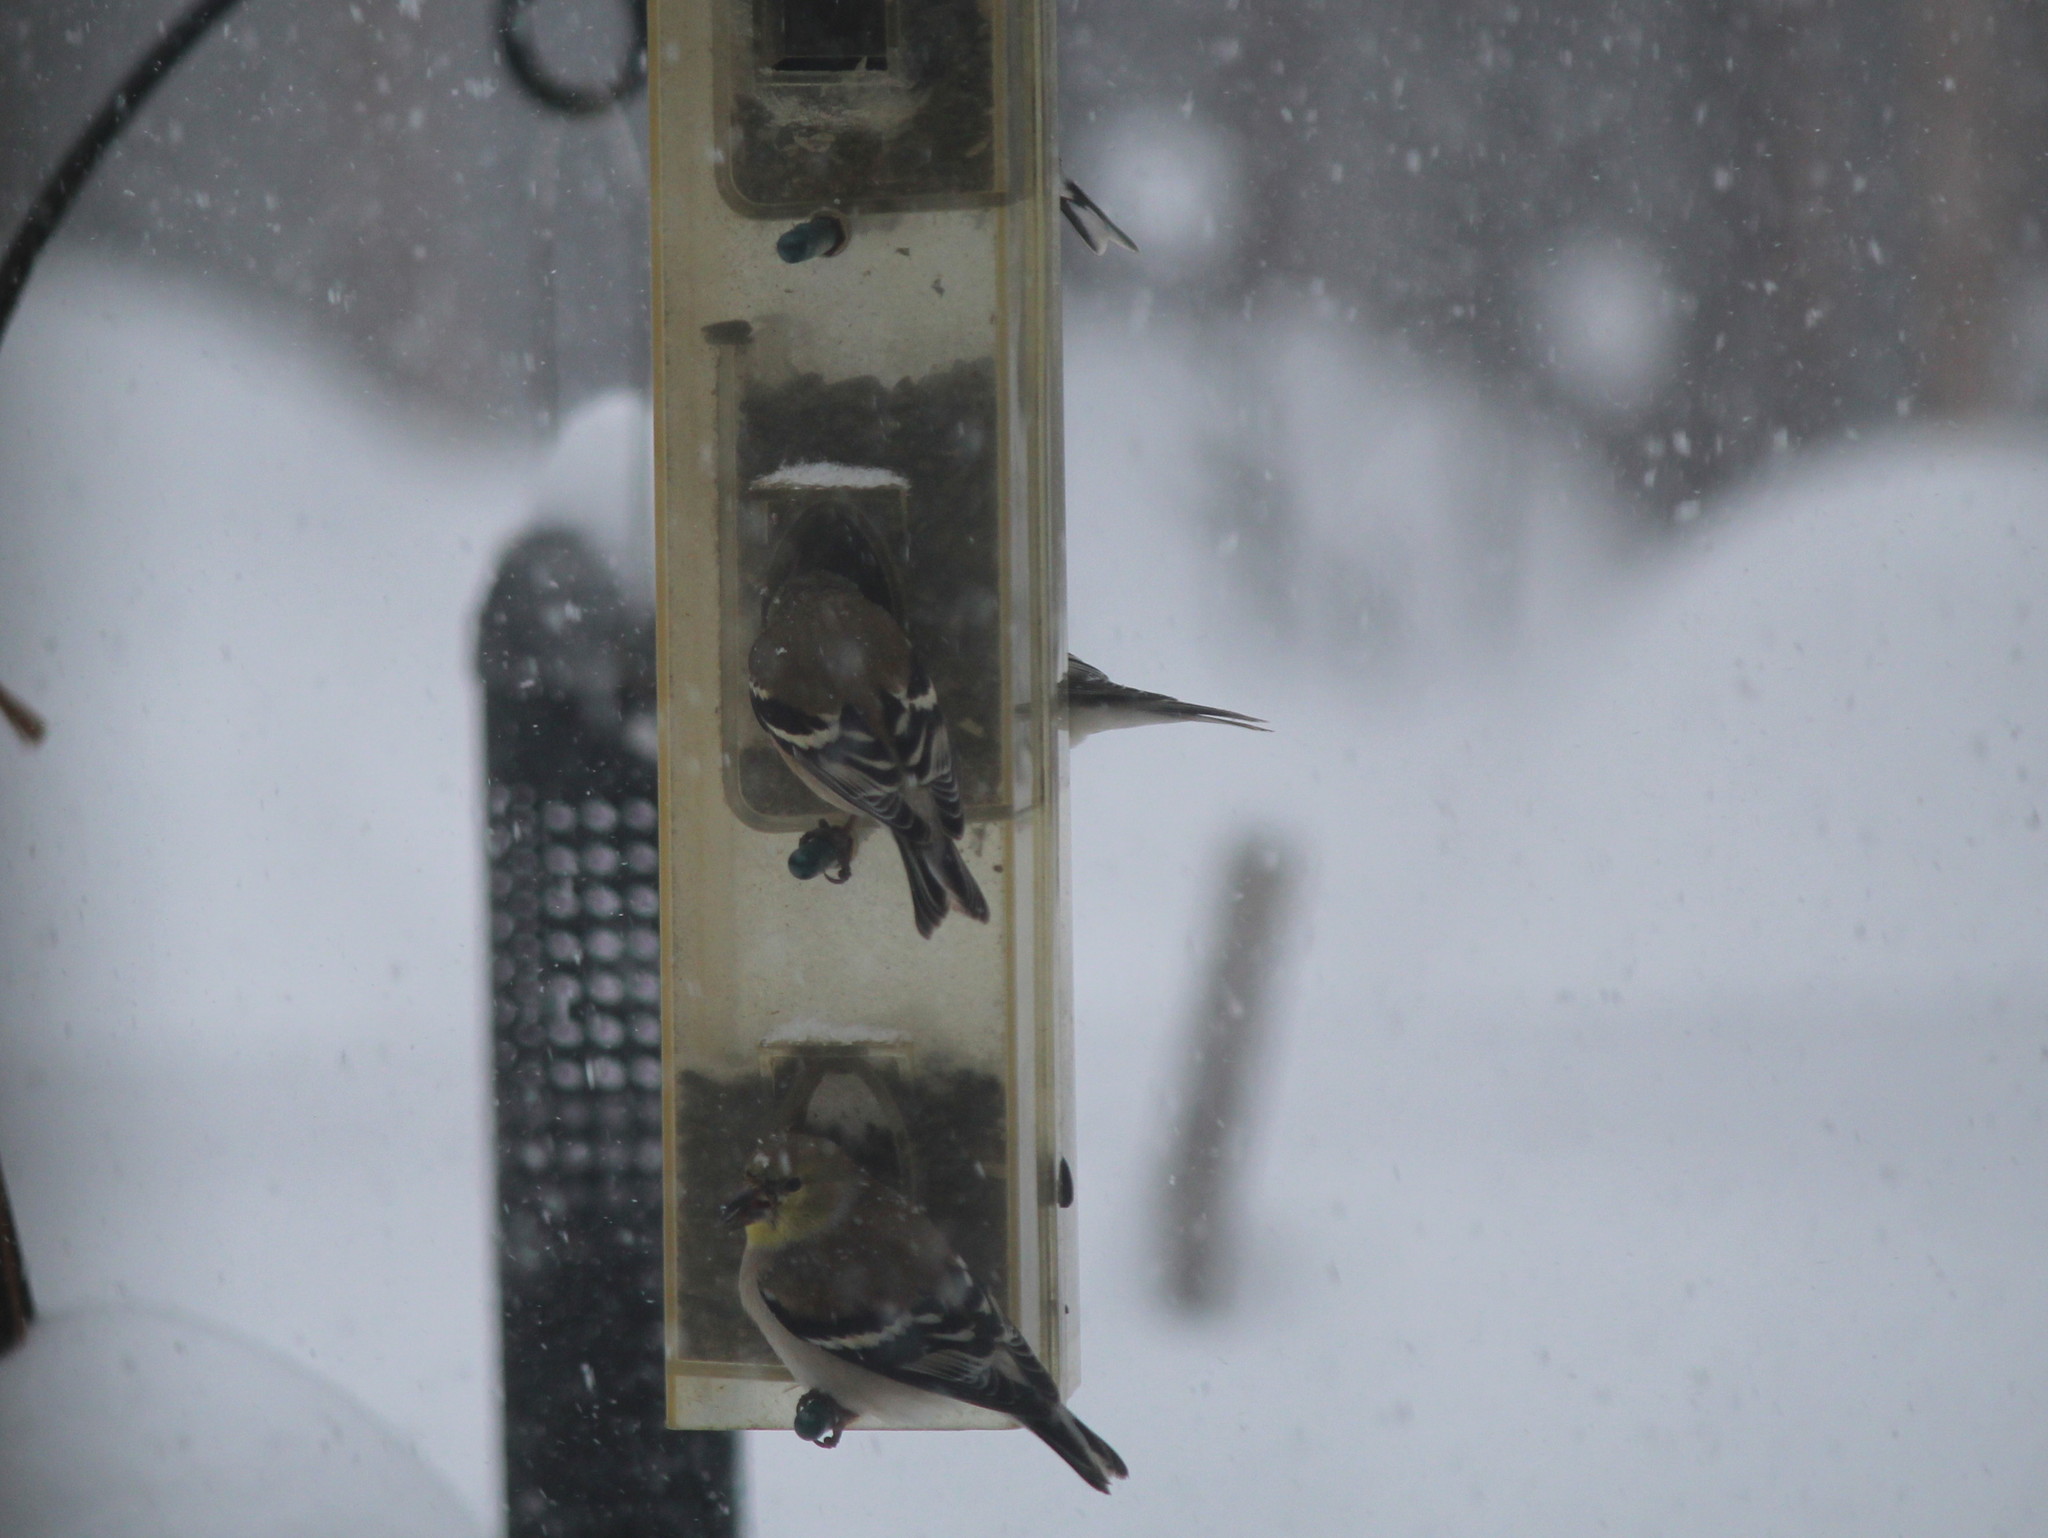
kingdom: Animalia
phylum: Chordata
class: Aves
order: Passeriformes
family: Fringillidae
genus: Spinus
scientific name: Spinus tristis
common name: American goldfinch
